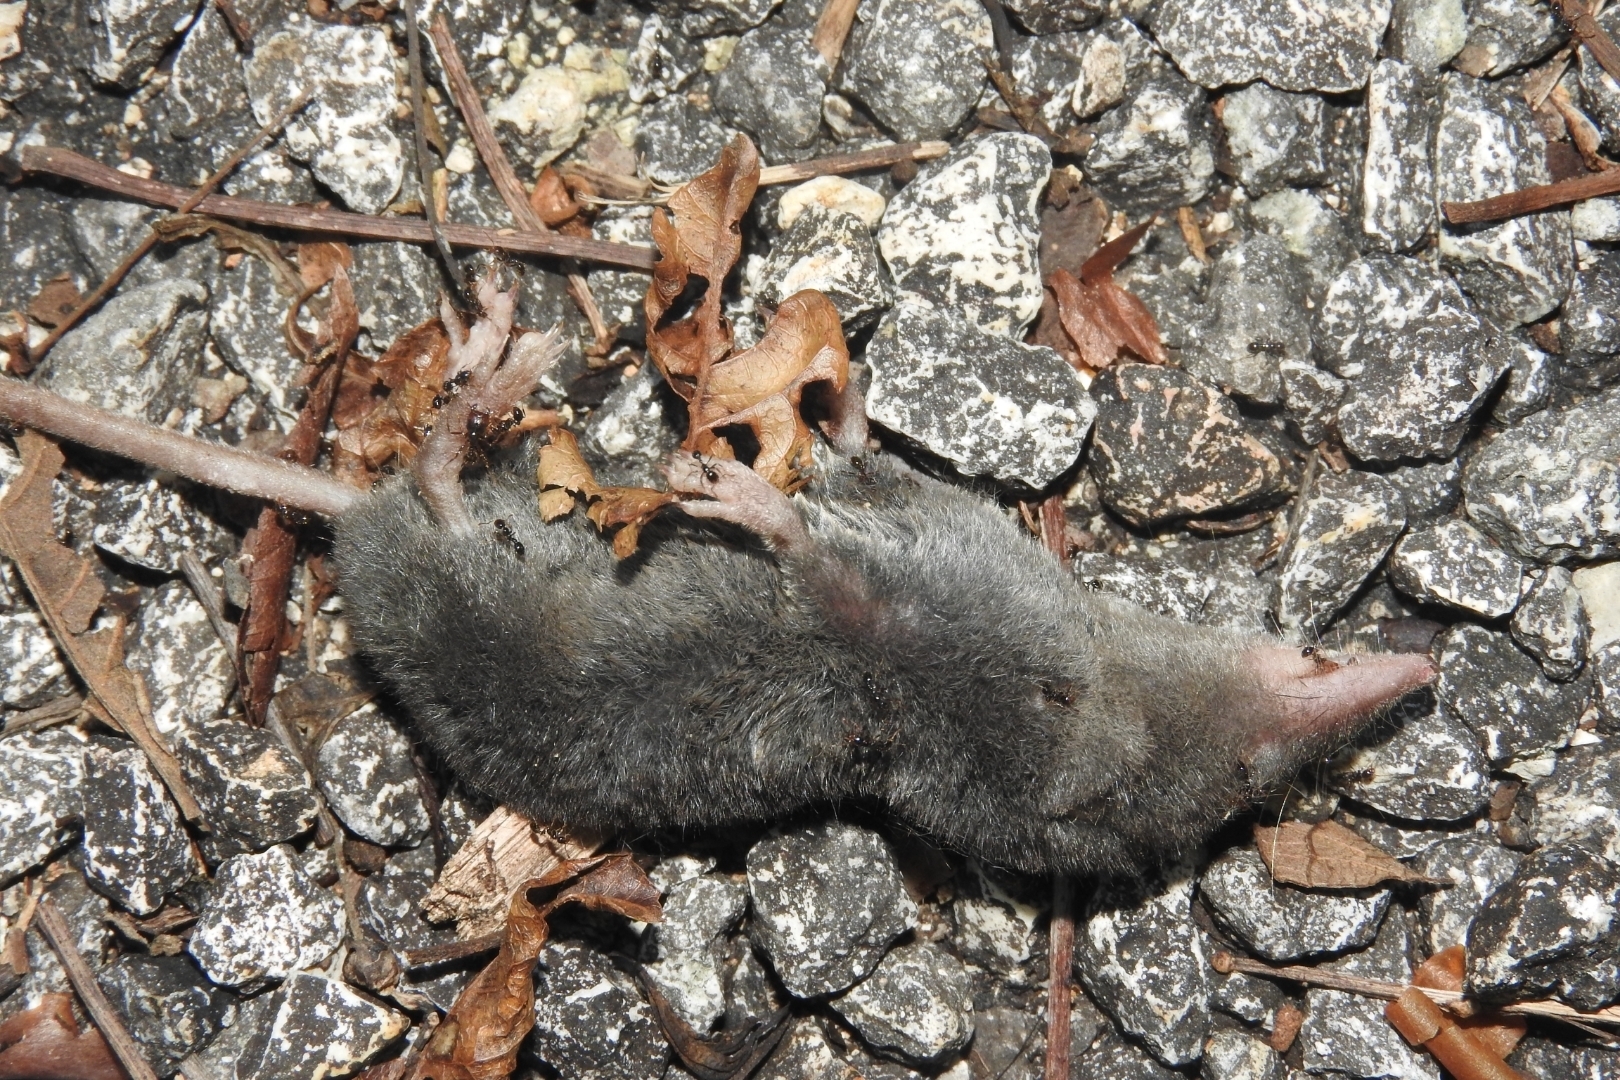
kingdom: Animalia
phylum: Chordata
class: Mammalia
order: Soricomorpha
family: Soricidae
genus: Cryptotis
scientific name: Cryptotis mayensis
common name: Yucatan small-eared shrew
